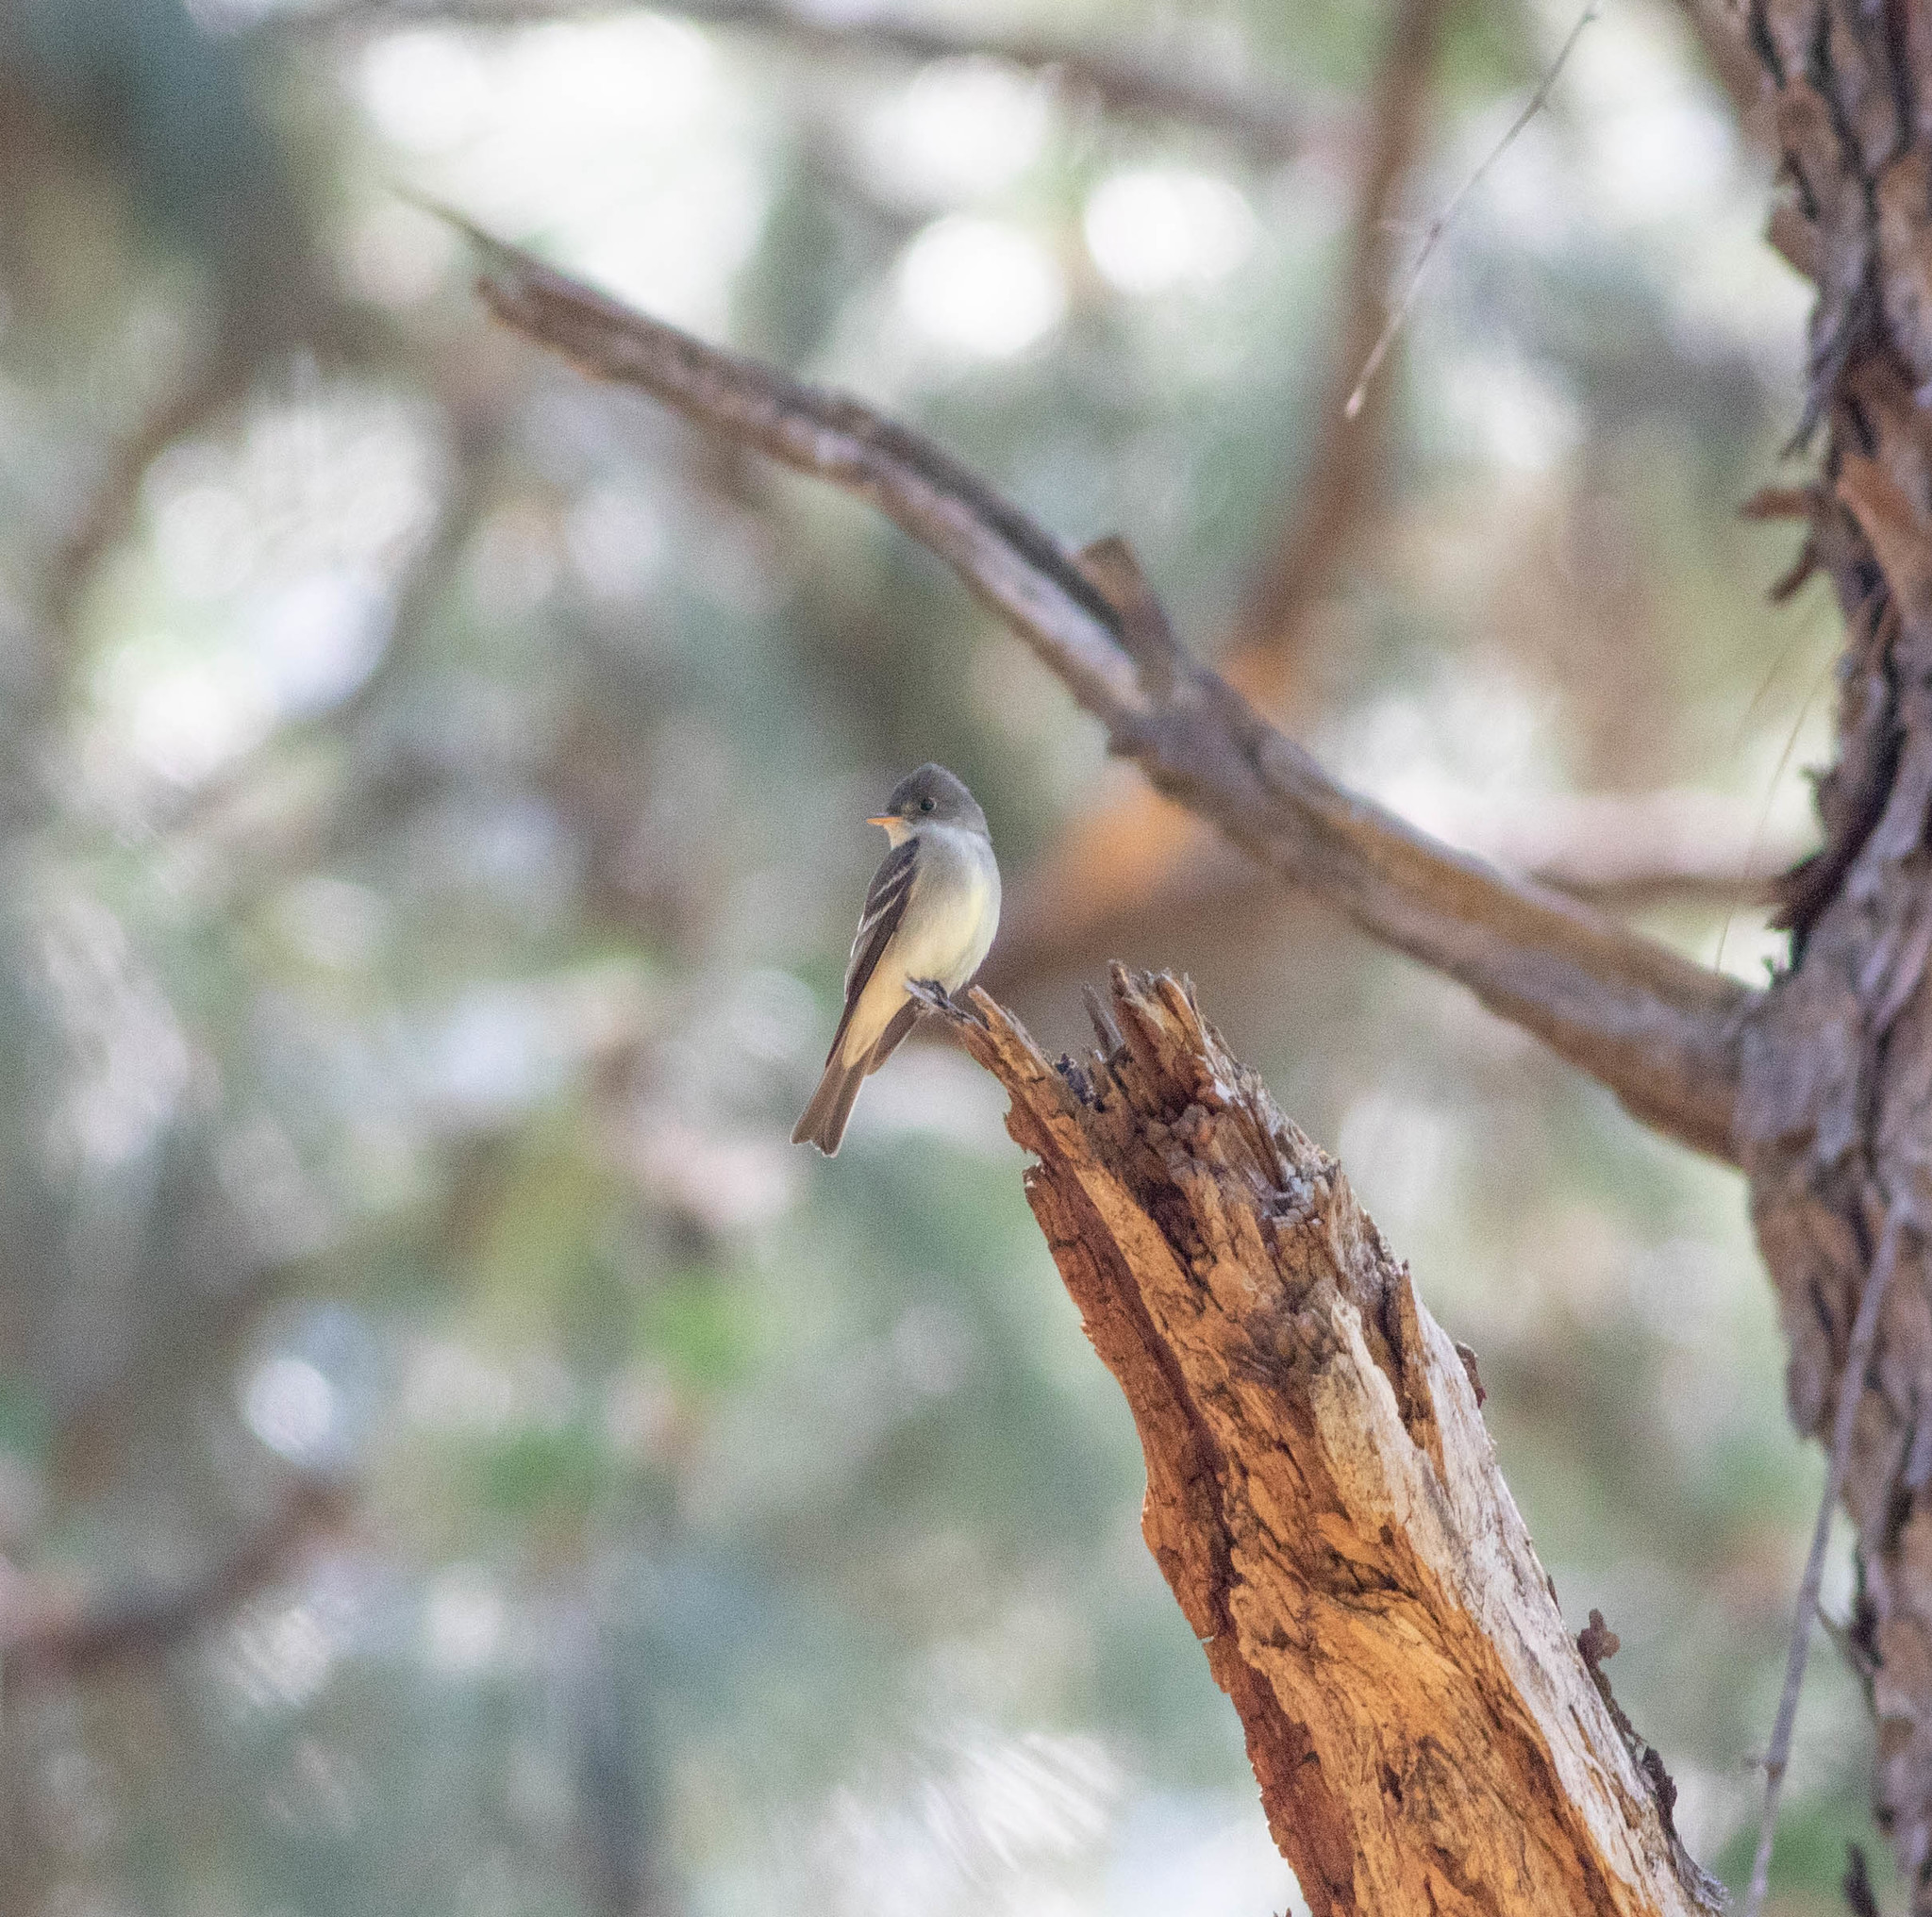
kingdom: Animalia
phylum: Chordata
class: Aves
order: Passeriformes
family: Tyrannidae
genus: Contopus
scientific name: Contopus virens
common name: Eastern wood-pewee
